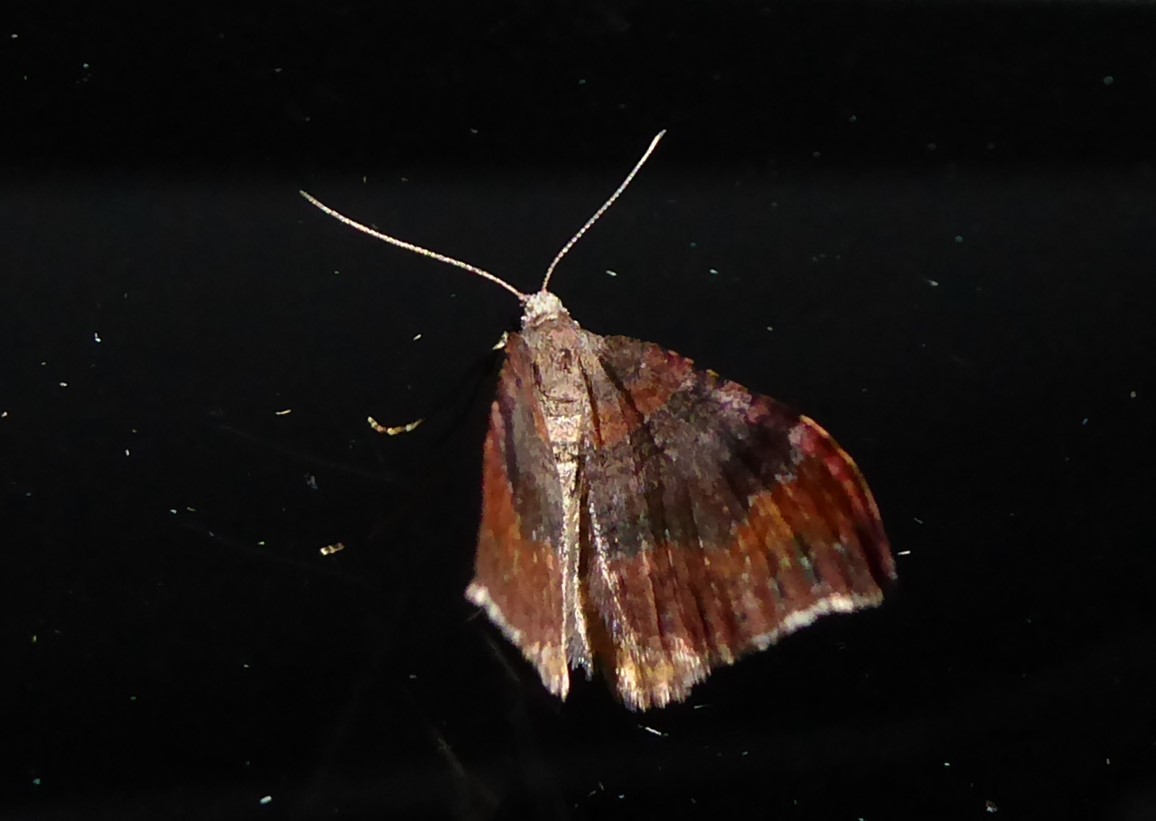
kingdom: Animalia
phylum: Arthropoda
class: Insecta
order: Lepidoptera
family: Geometridae
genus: Homodotis
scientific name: Homodotis megaspilata
